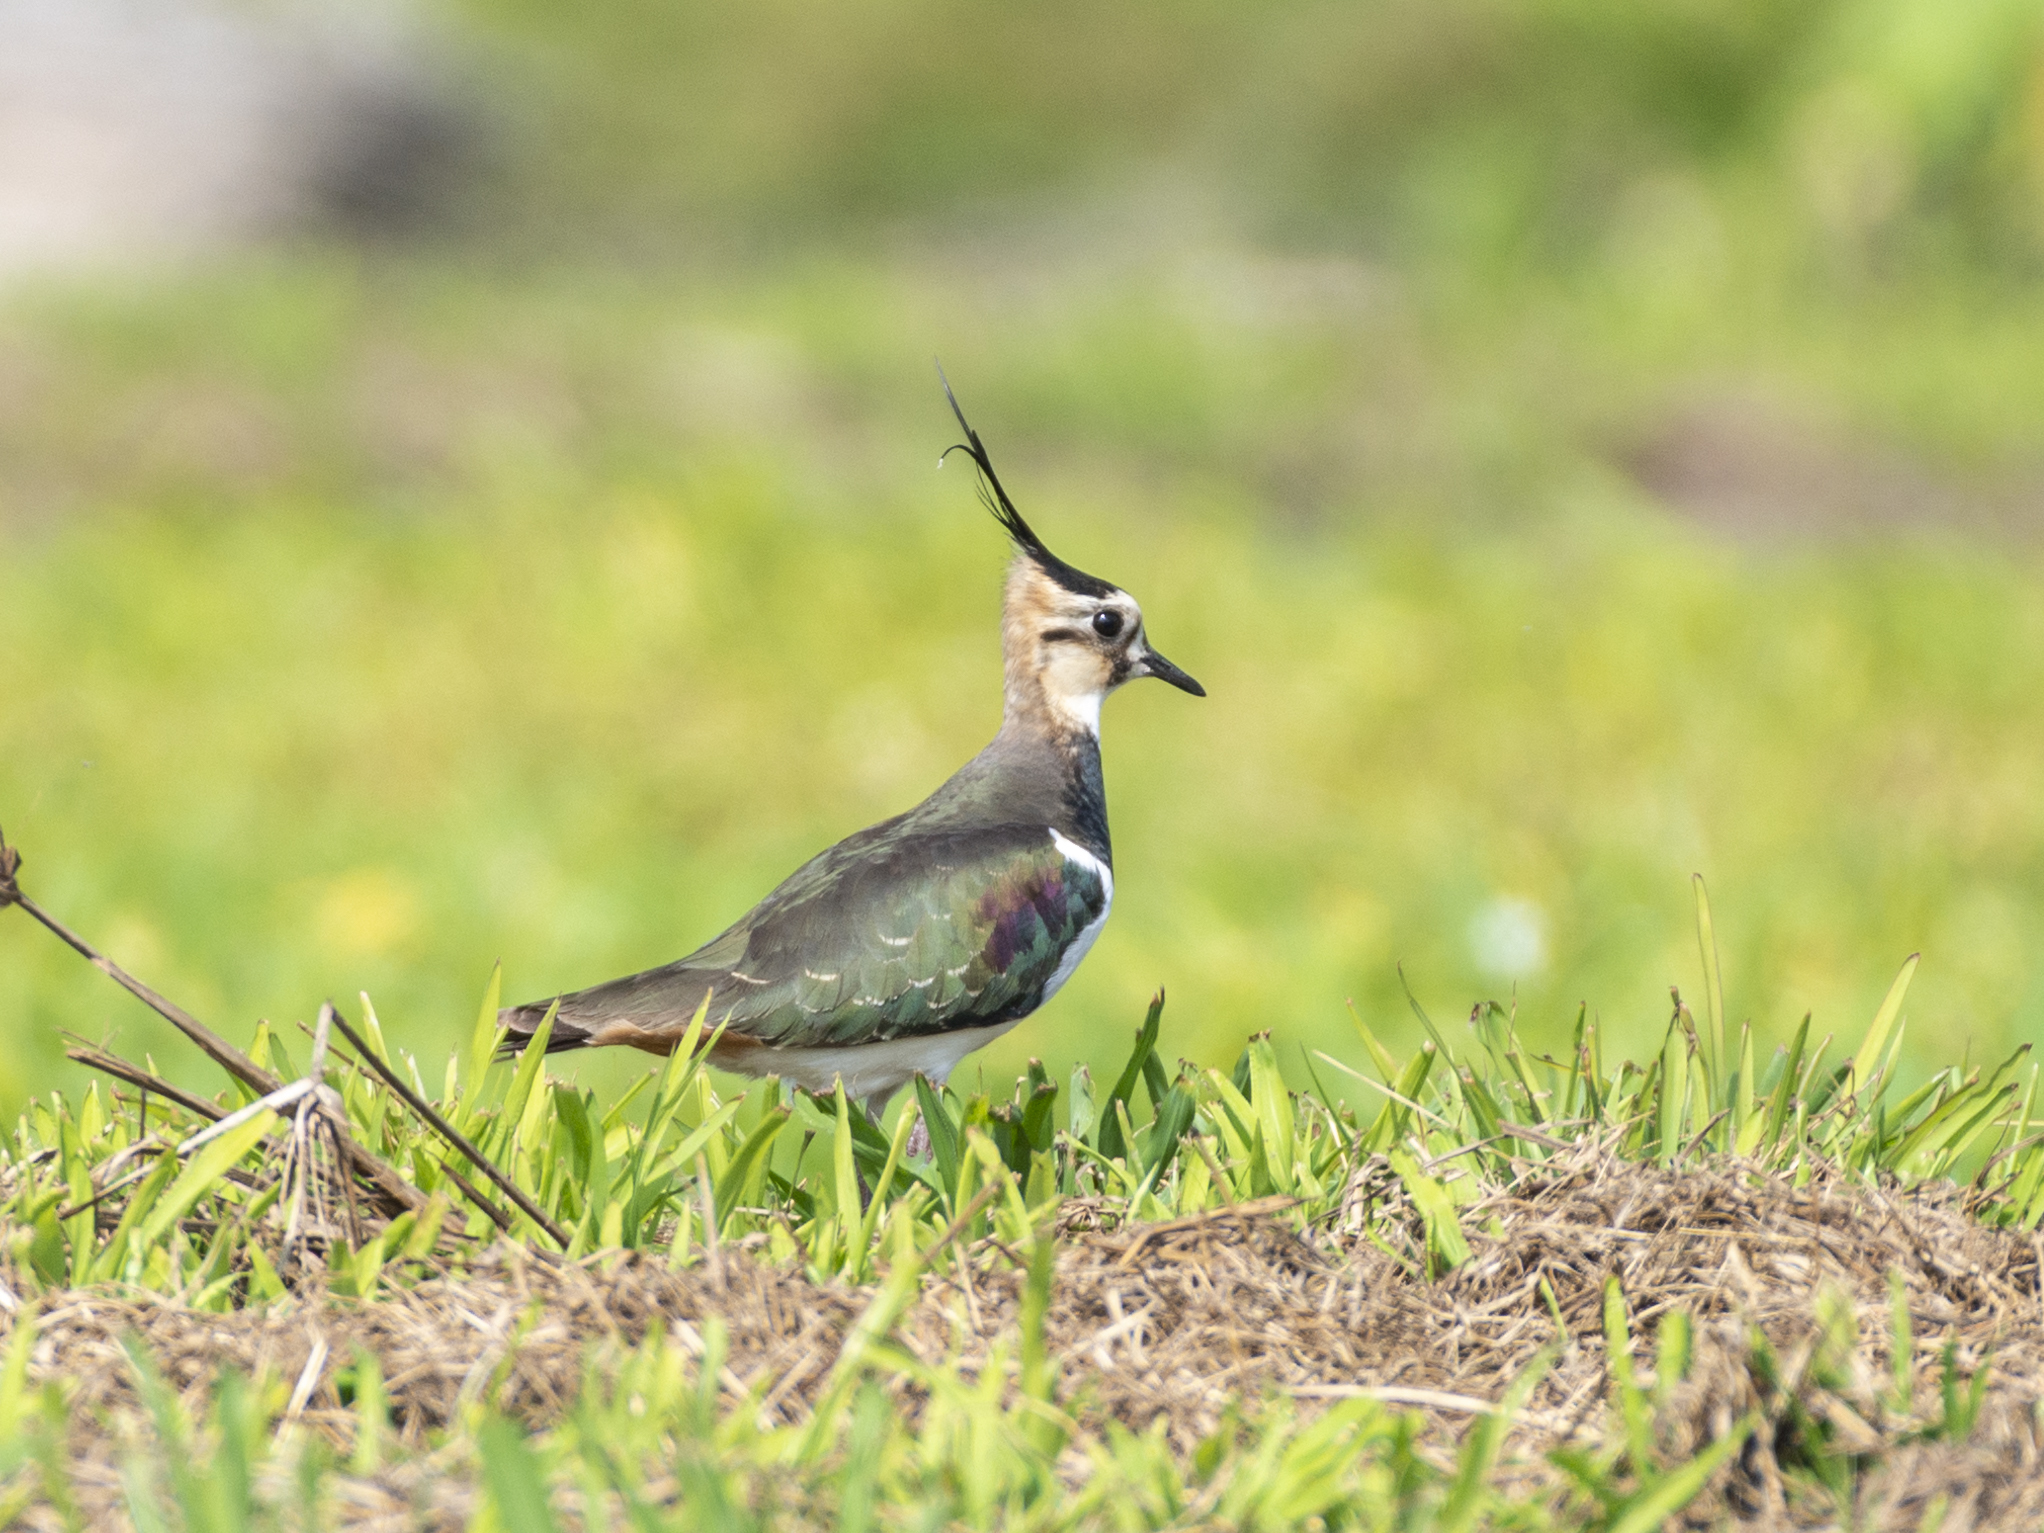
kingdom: Animalia
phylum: Chordata
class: Aves
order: Charadriiformes
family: Charadriidae
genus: Vanellus
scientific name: Vanellus vanellus
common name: Northern lapwing
